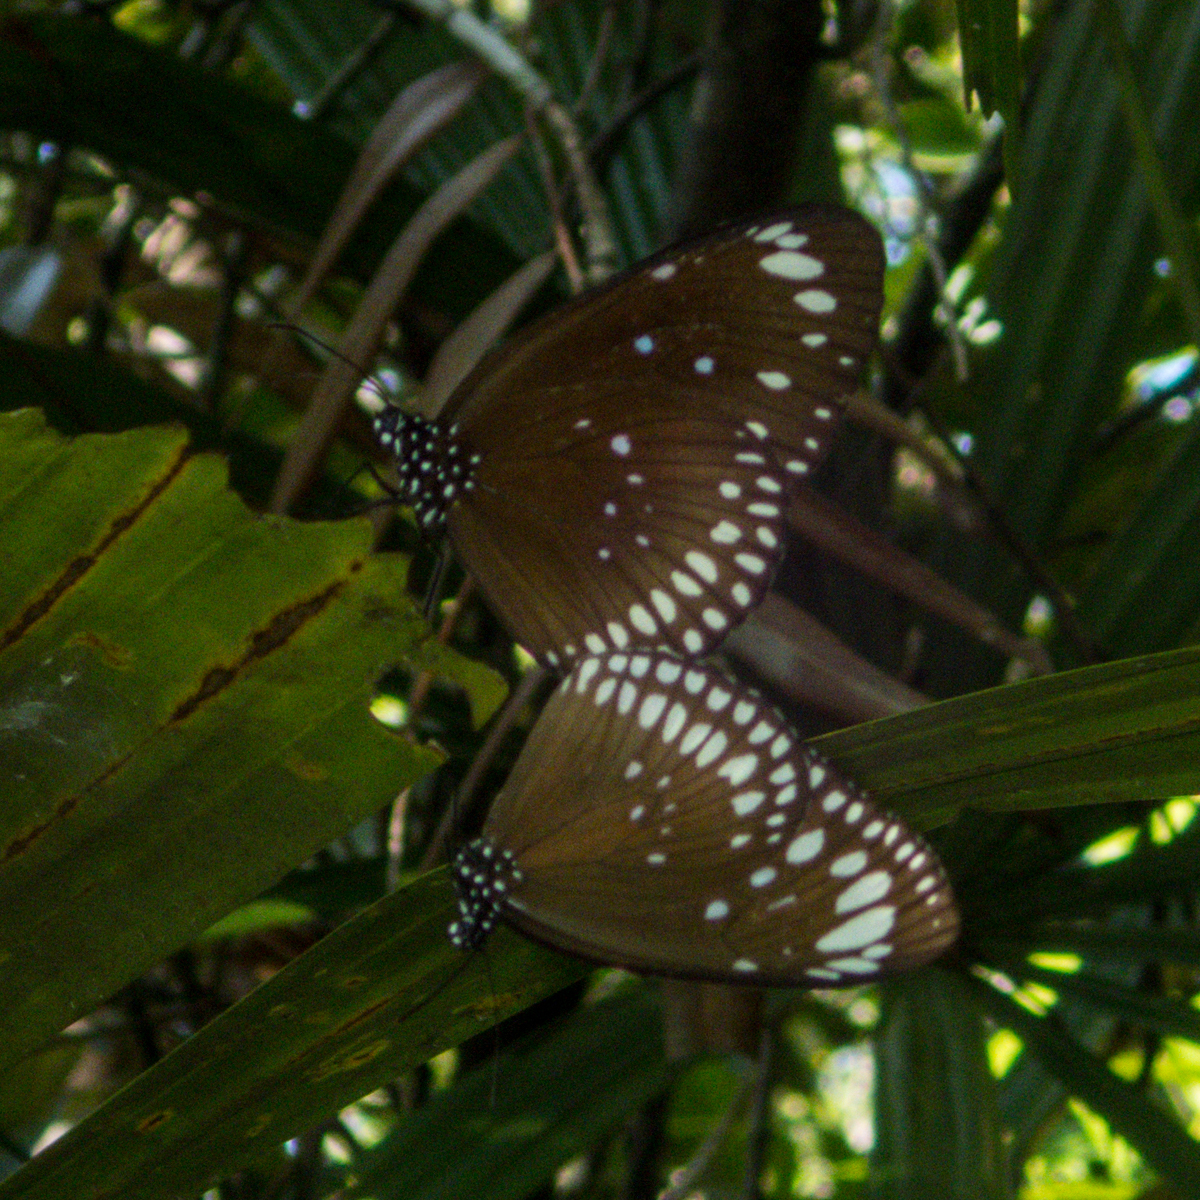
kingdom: Animalia
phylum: Arthropoda
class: Insecta
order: Lepidoptera
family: Nymphalidae
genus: Euploea
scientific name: Euploea crameri
